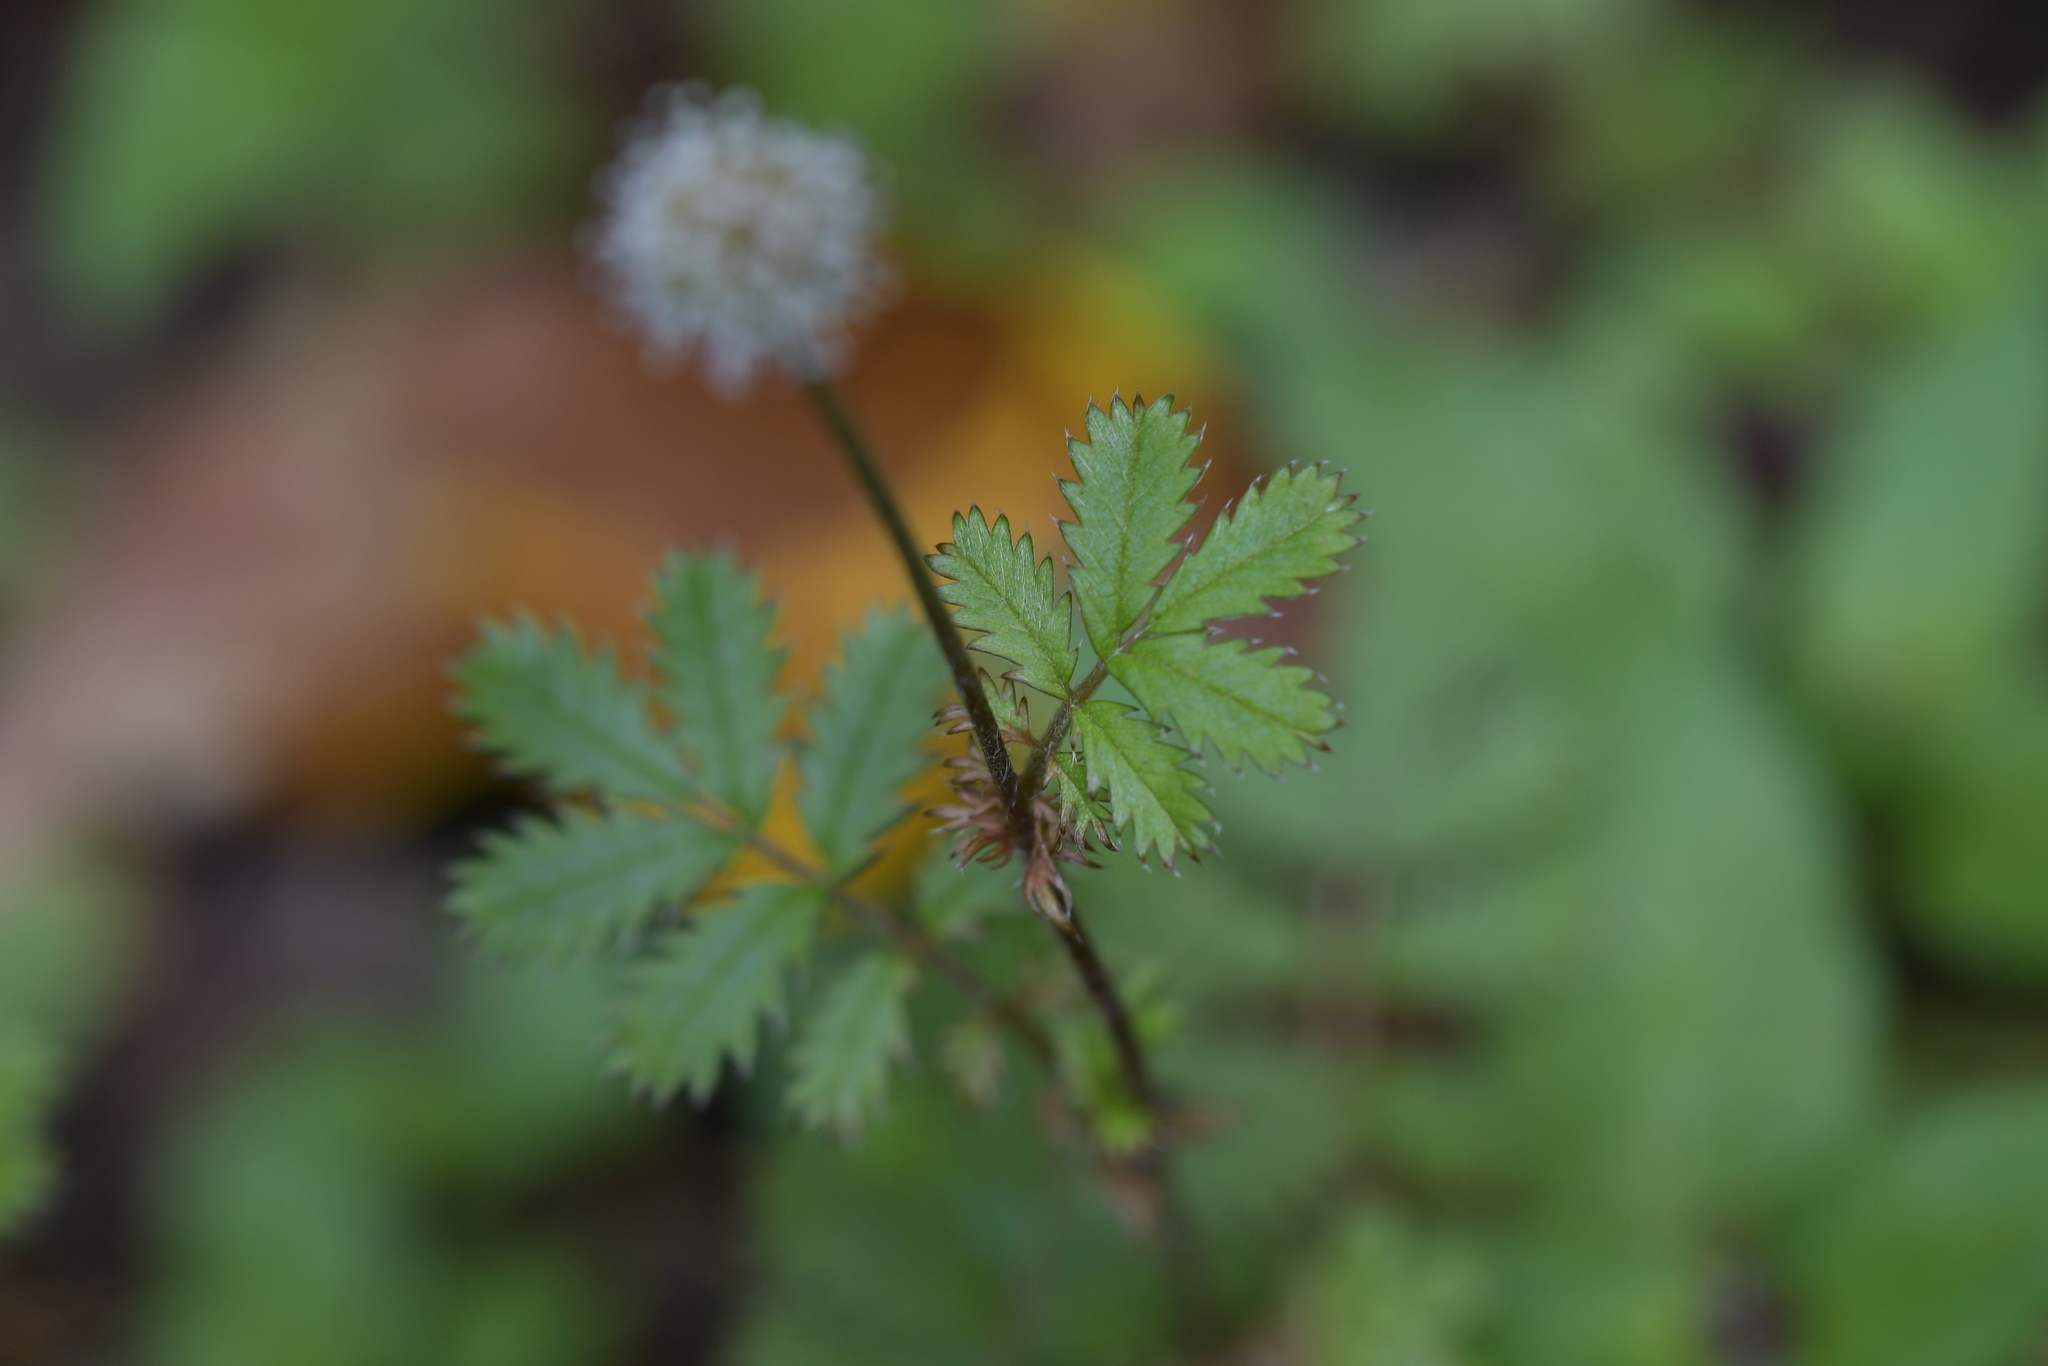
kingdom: Plantae
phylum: Tracheophyta
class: Magnoliopsida
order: Rosales
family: Rosaceae
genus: Acaena
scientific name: Acaena anserinifolia
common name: Bronze pirri-pirri-bur
